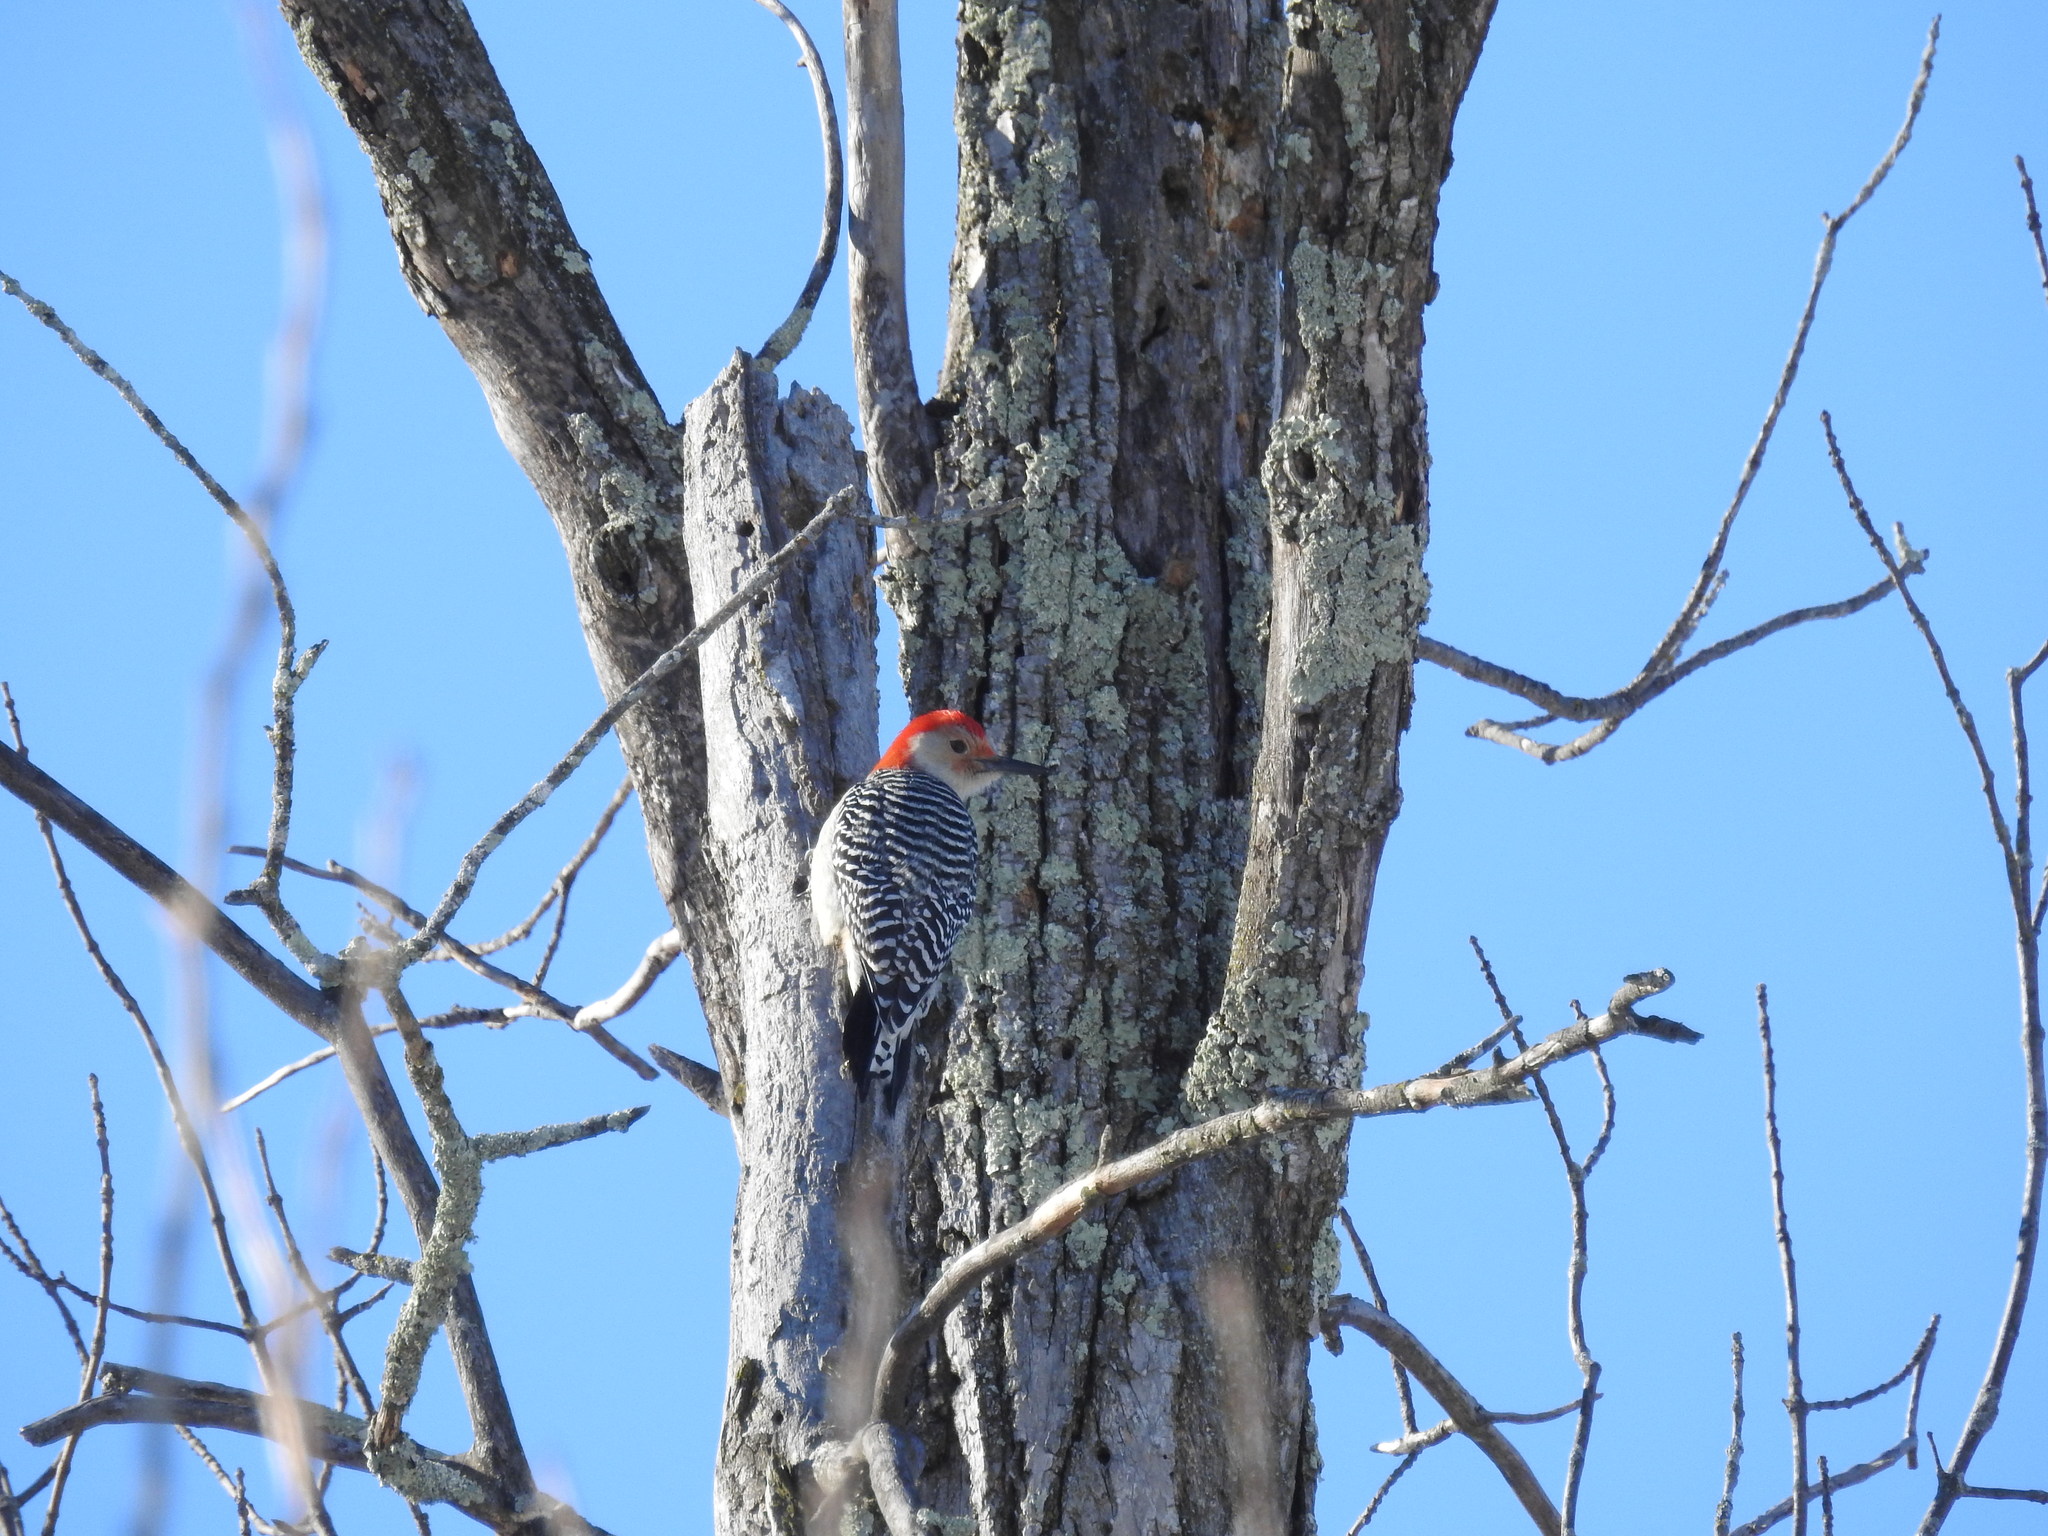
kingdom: Animalia
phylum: Chordata
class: Aves
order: Piciformes
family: Picidae
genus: Melanerpes
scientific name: Melanerpes carolinus
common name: Red-bellied woodpecker
